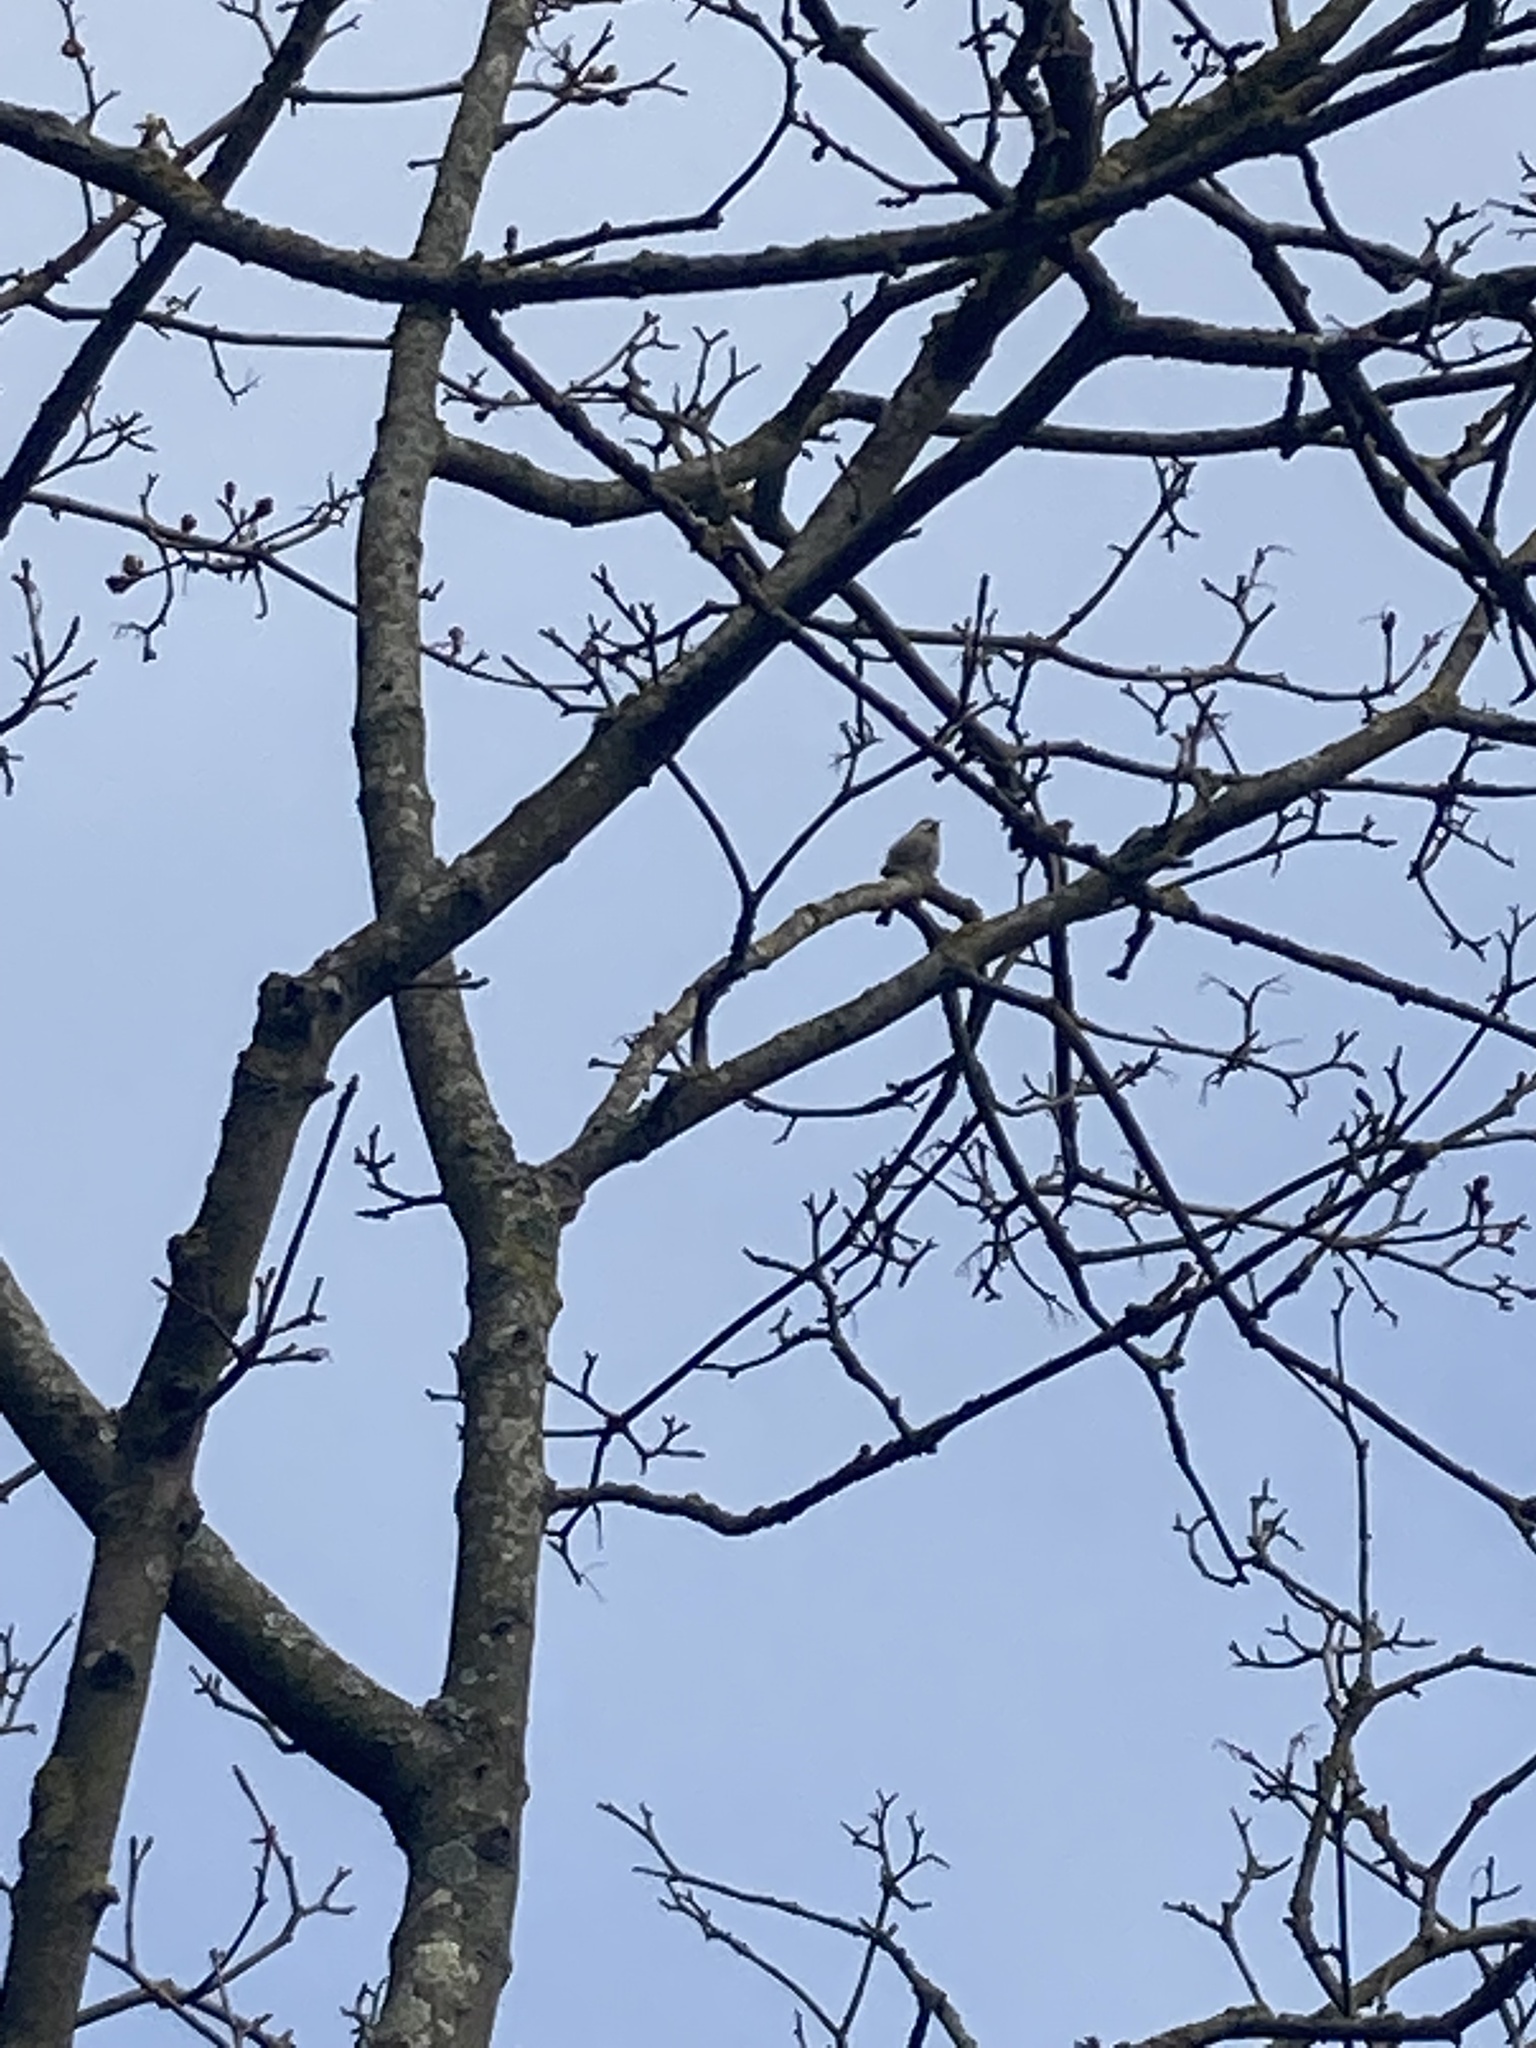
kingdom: Animalia
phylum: Chordata
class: Aves
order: Passeriformes
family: Paridae
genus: Cyanistes
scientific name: Cyanistes caeruleus
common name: Eurasian blue tit
